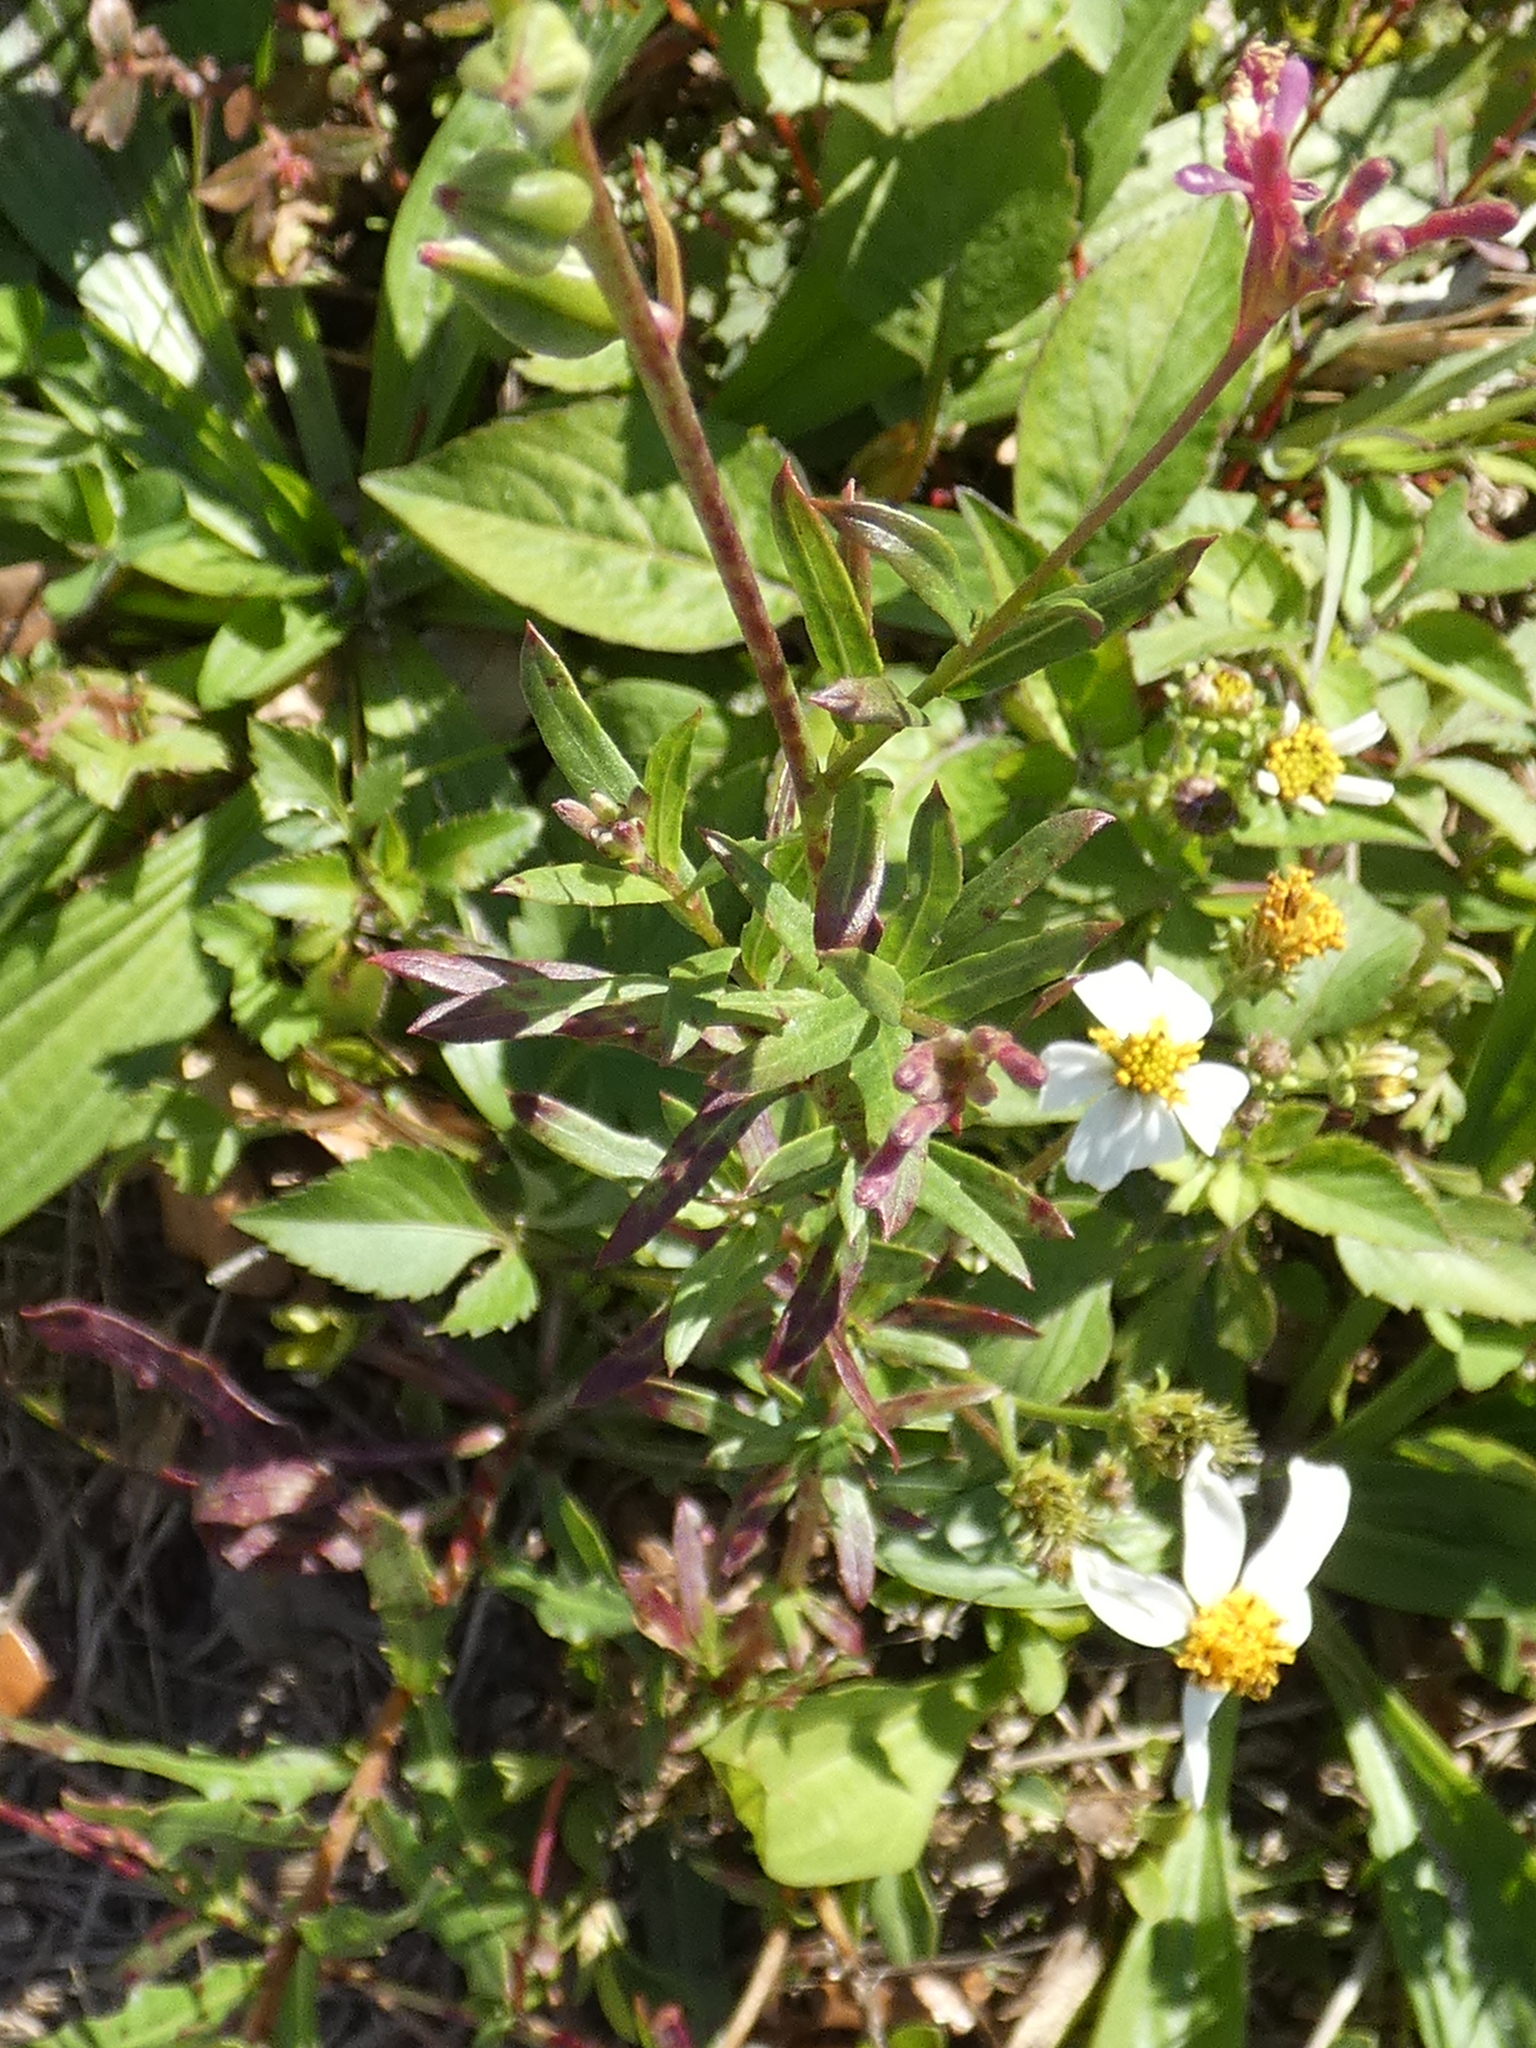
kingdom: Plantae
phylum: Tracheophyta
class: Magnoliopsida
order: Myrtales
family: Onagraceae
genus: Oenothera
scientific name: Oenothera simulans
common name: Southern beeblossom
